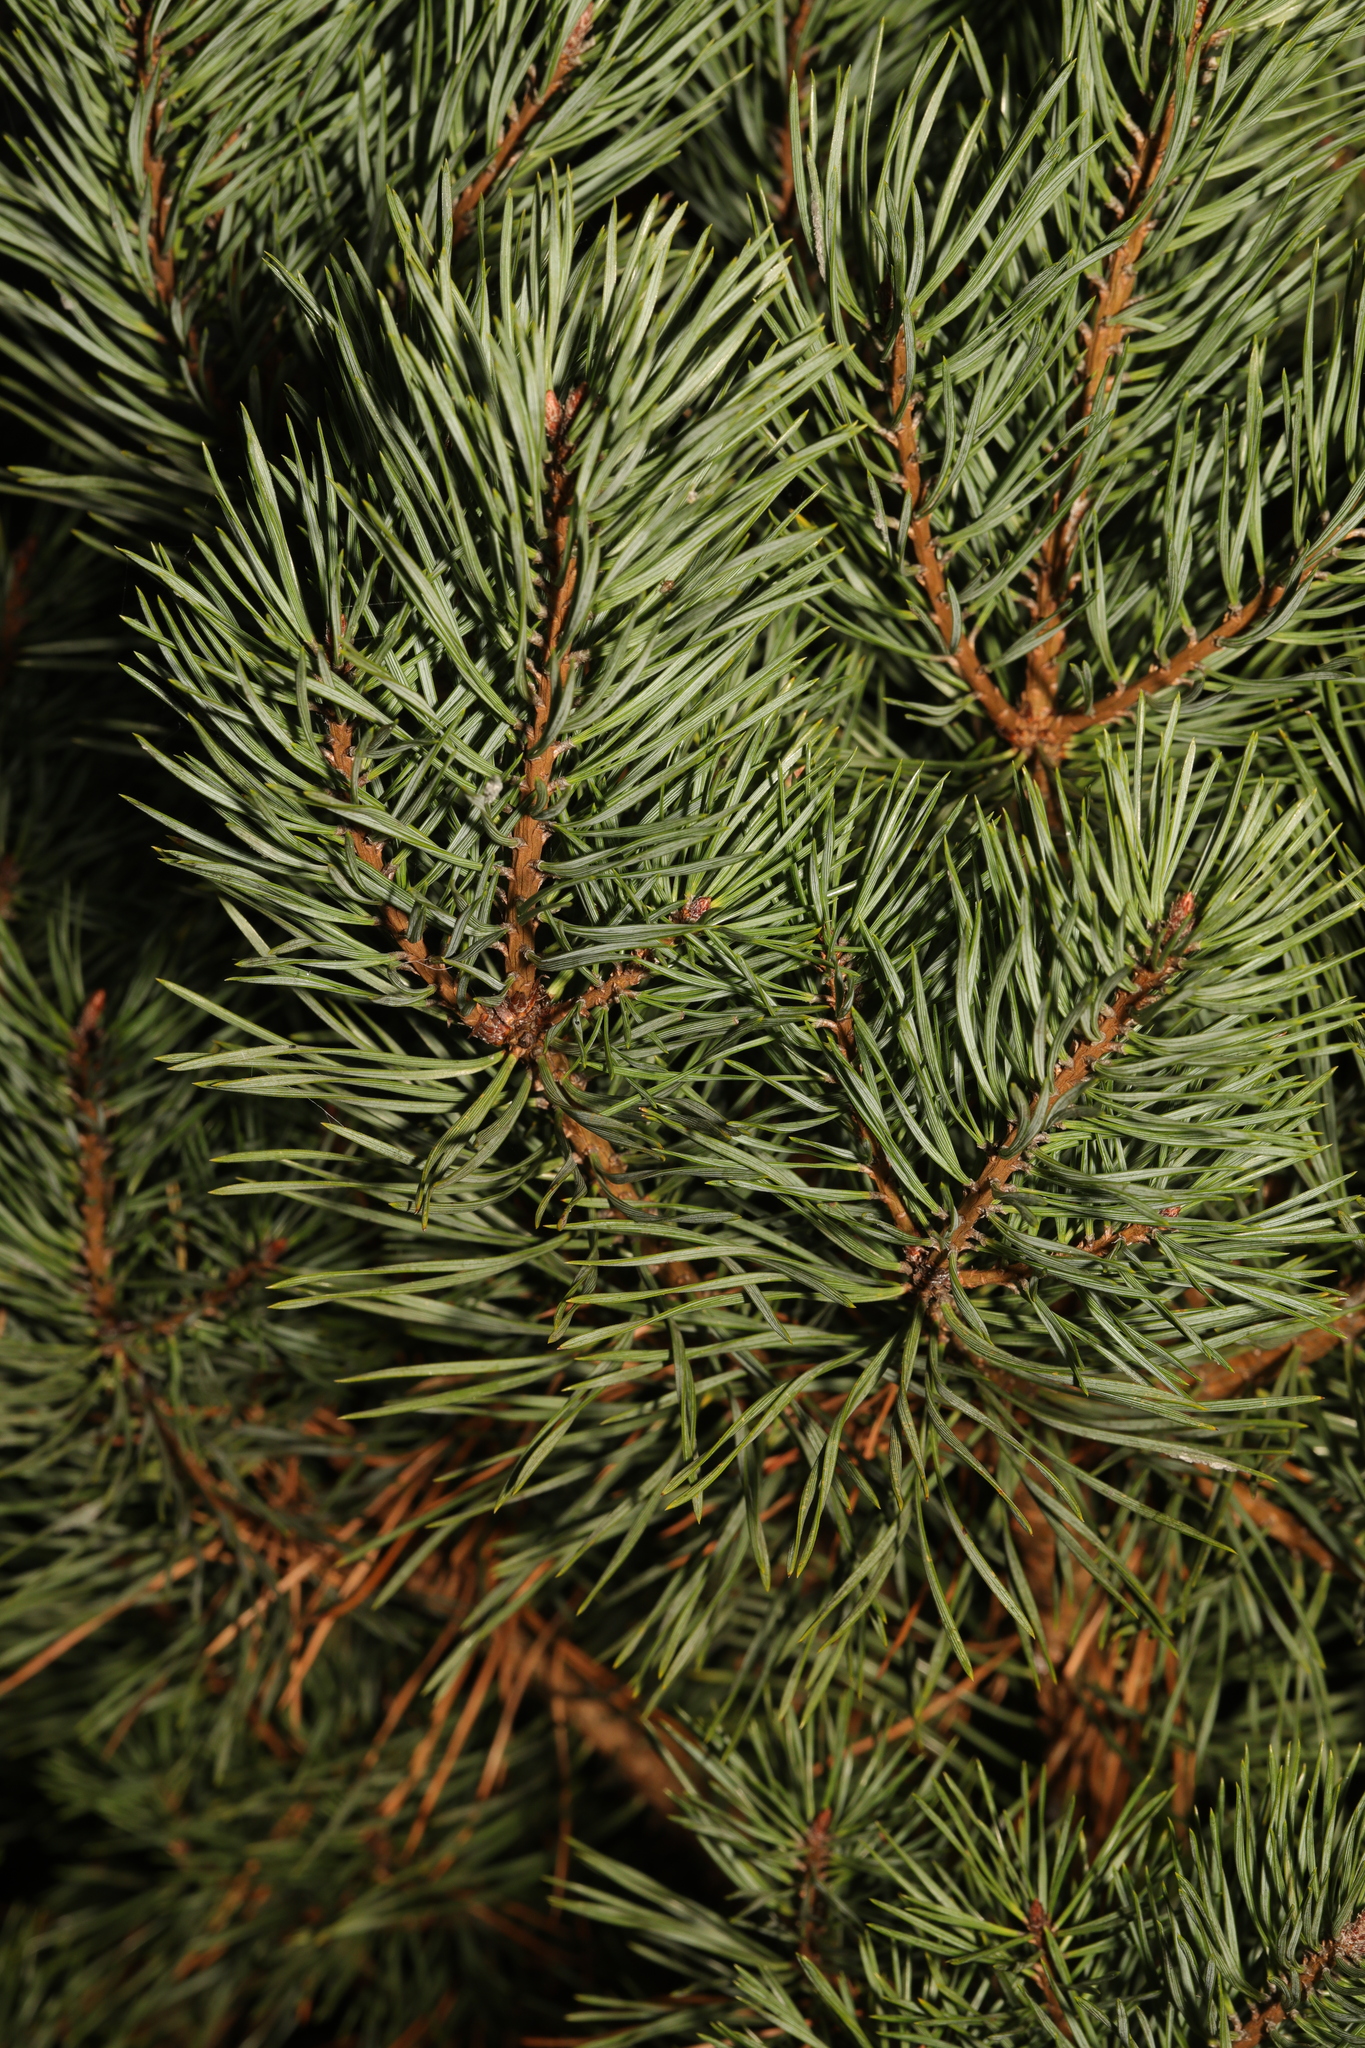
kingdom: Plantae
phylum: Tracheophyta
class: Pinopsida
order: Pinales
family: Pinaceae
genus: Pinus
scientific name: Pinus sylvestris
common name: Scots pine
